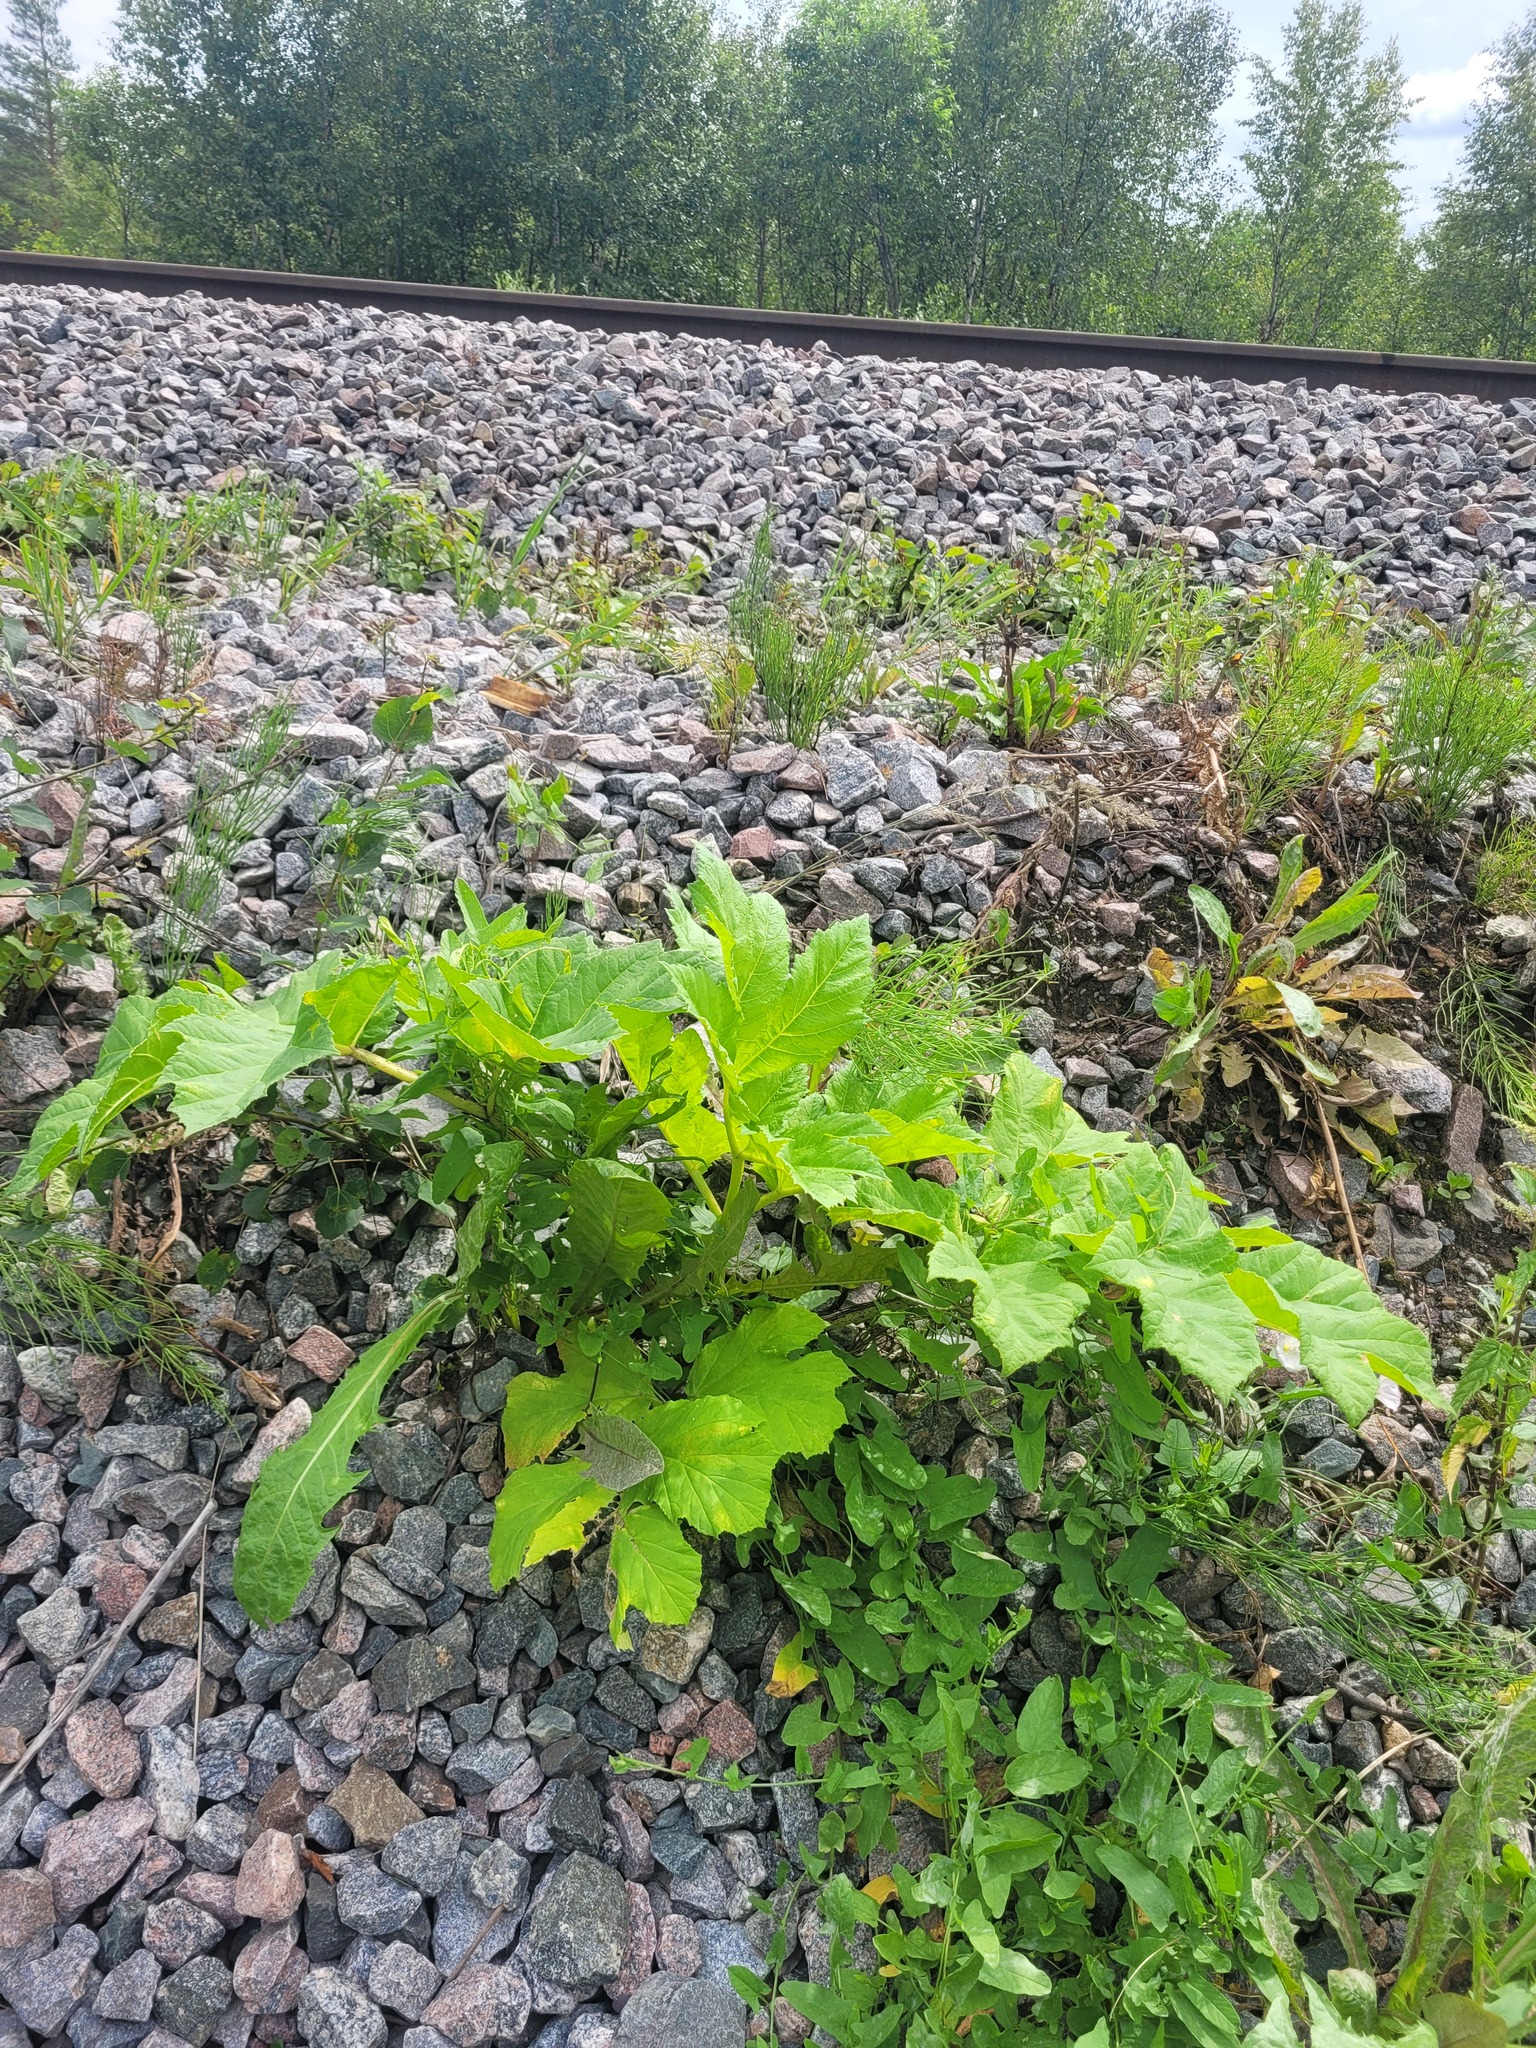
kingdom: Plantae
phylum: Tracheophyta
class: Magnoliopsida
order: Apiales
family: Apiaceae
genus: Heracleum
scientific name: Heracleum sosnowskyi
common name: Sosnowsky's hogweed
